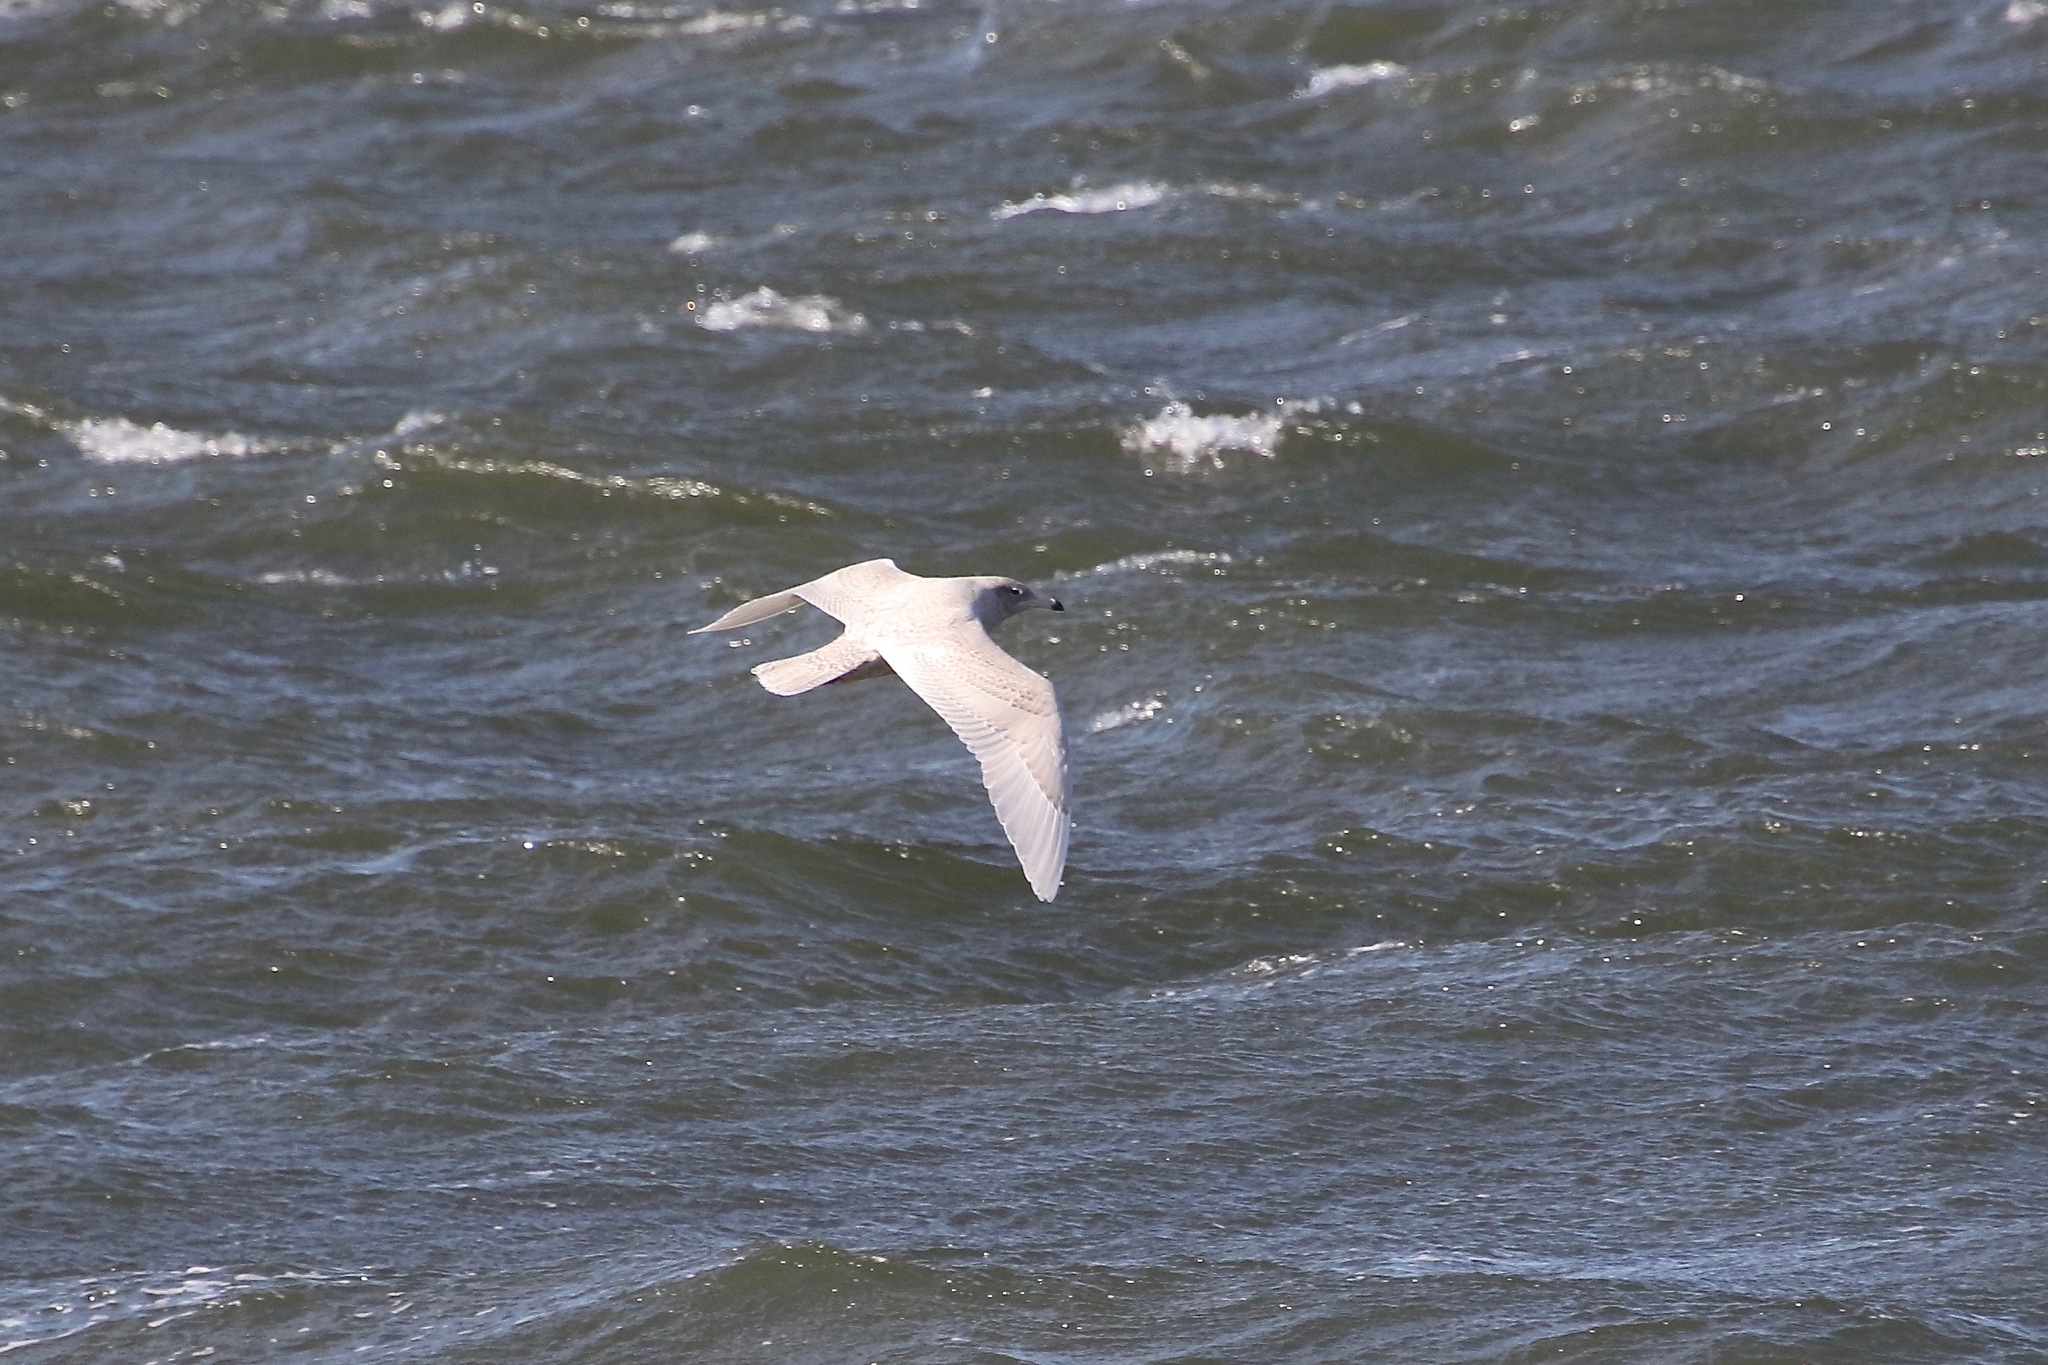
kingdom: Animalia
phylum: Chordata
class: Aves
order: Charadriiformes
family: Laridae
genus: Larus
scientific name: Larus hyperboreus
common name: Glaucous gull
